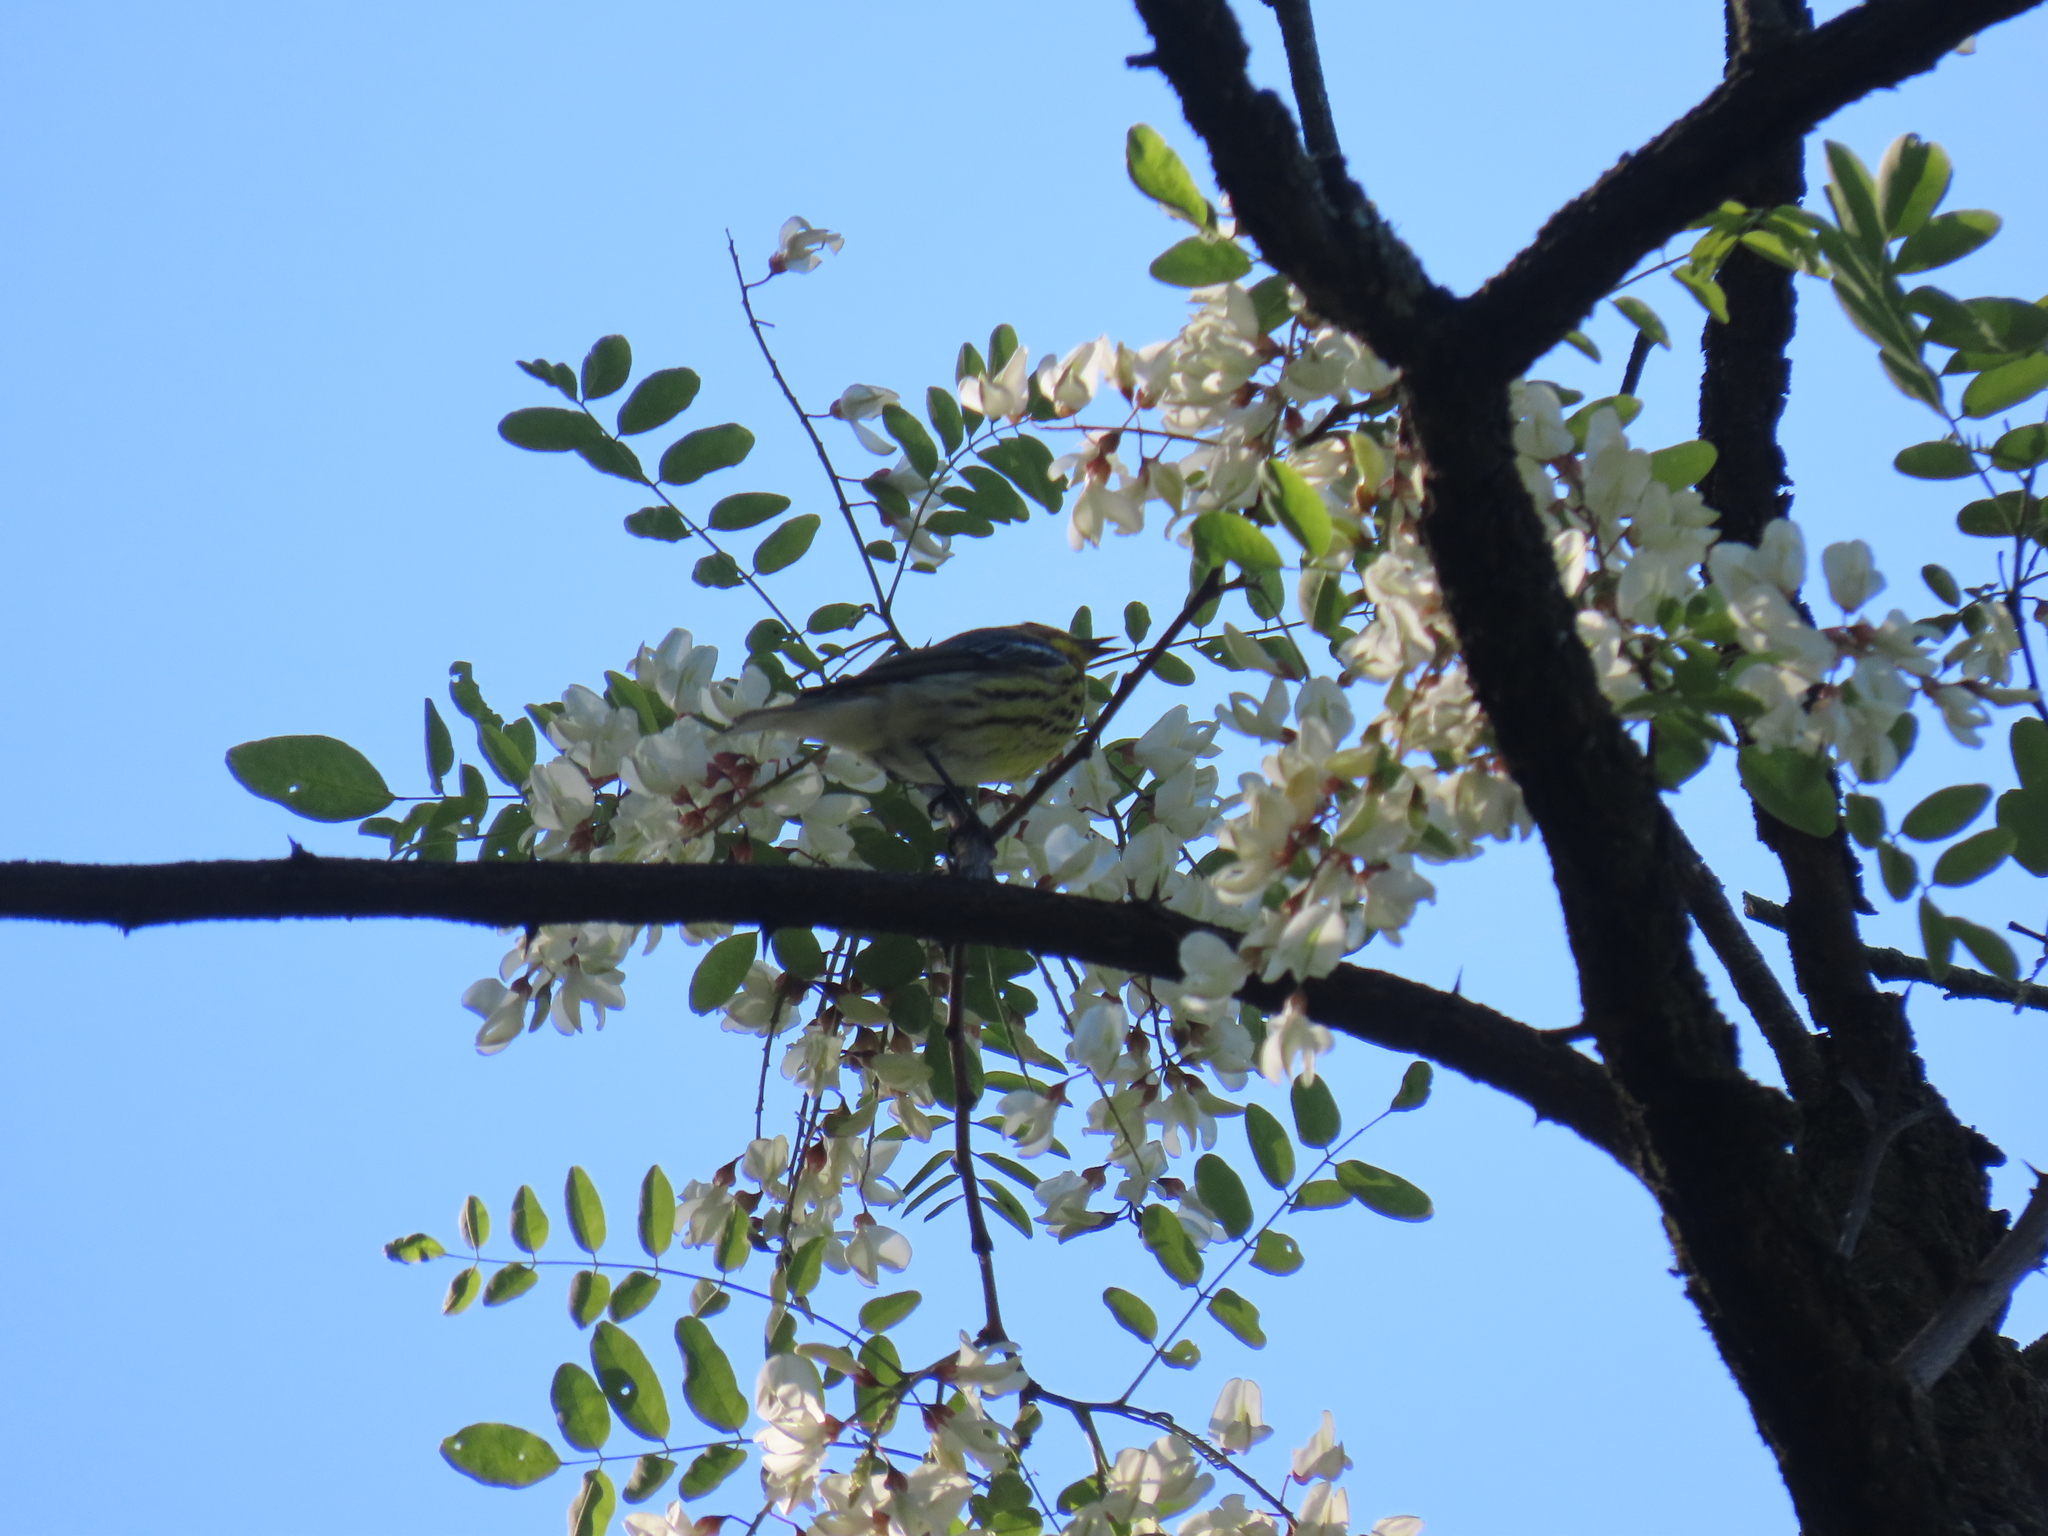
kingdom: Animalia
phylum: Chordata
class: Aves
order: Passeriformes
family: Parulidae
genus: Setophaga
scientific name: Setophaga tigrina
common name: Cape may warbler
